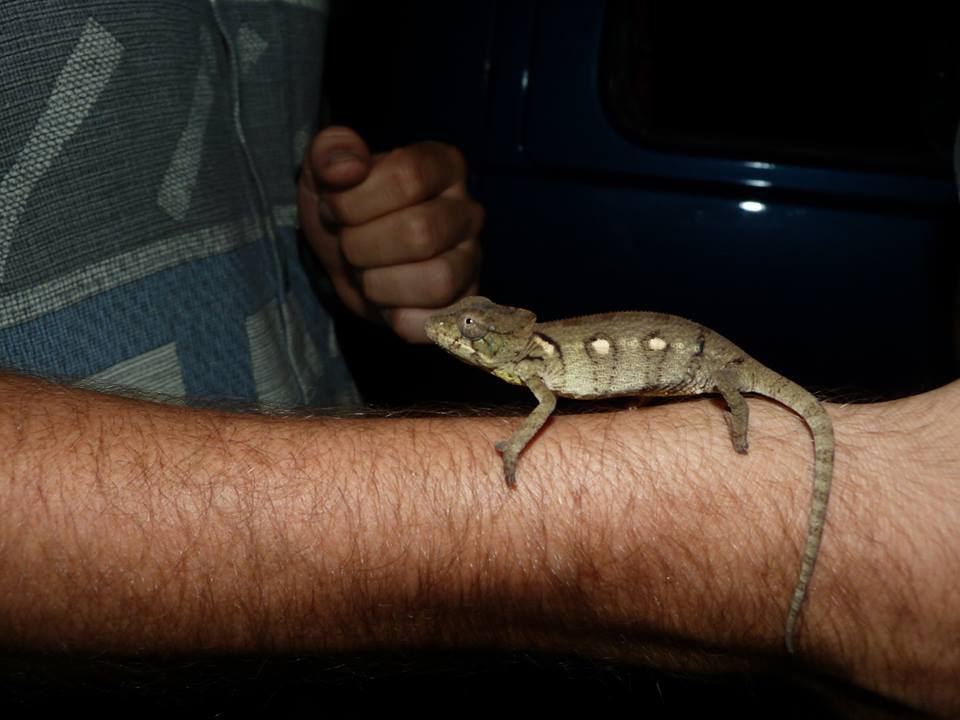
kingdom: Animalia
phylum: Chordata
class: Squamata
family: Chamaeleonidae
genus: Furcifer
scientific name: Furcifer oustaleti
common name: Oustalet's chameleon
